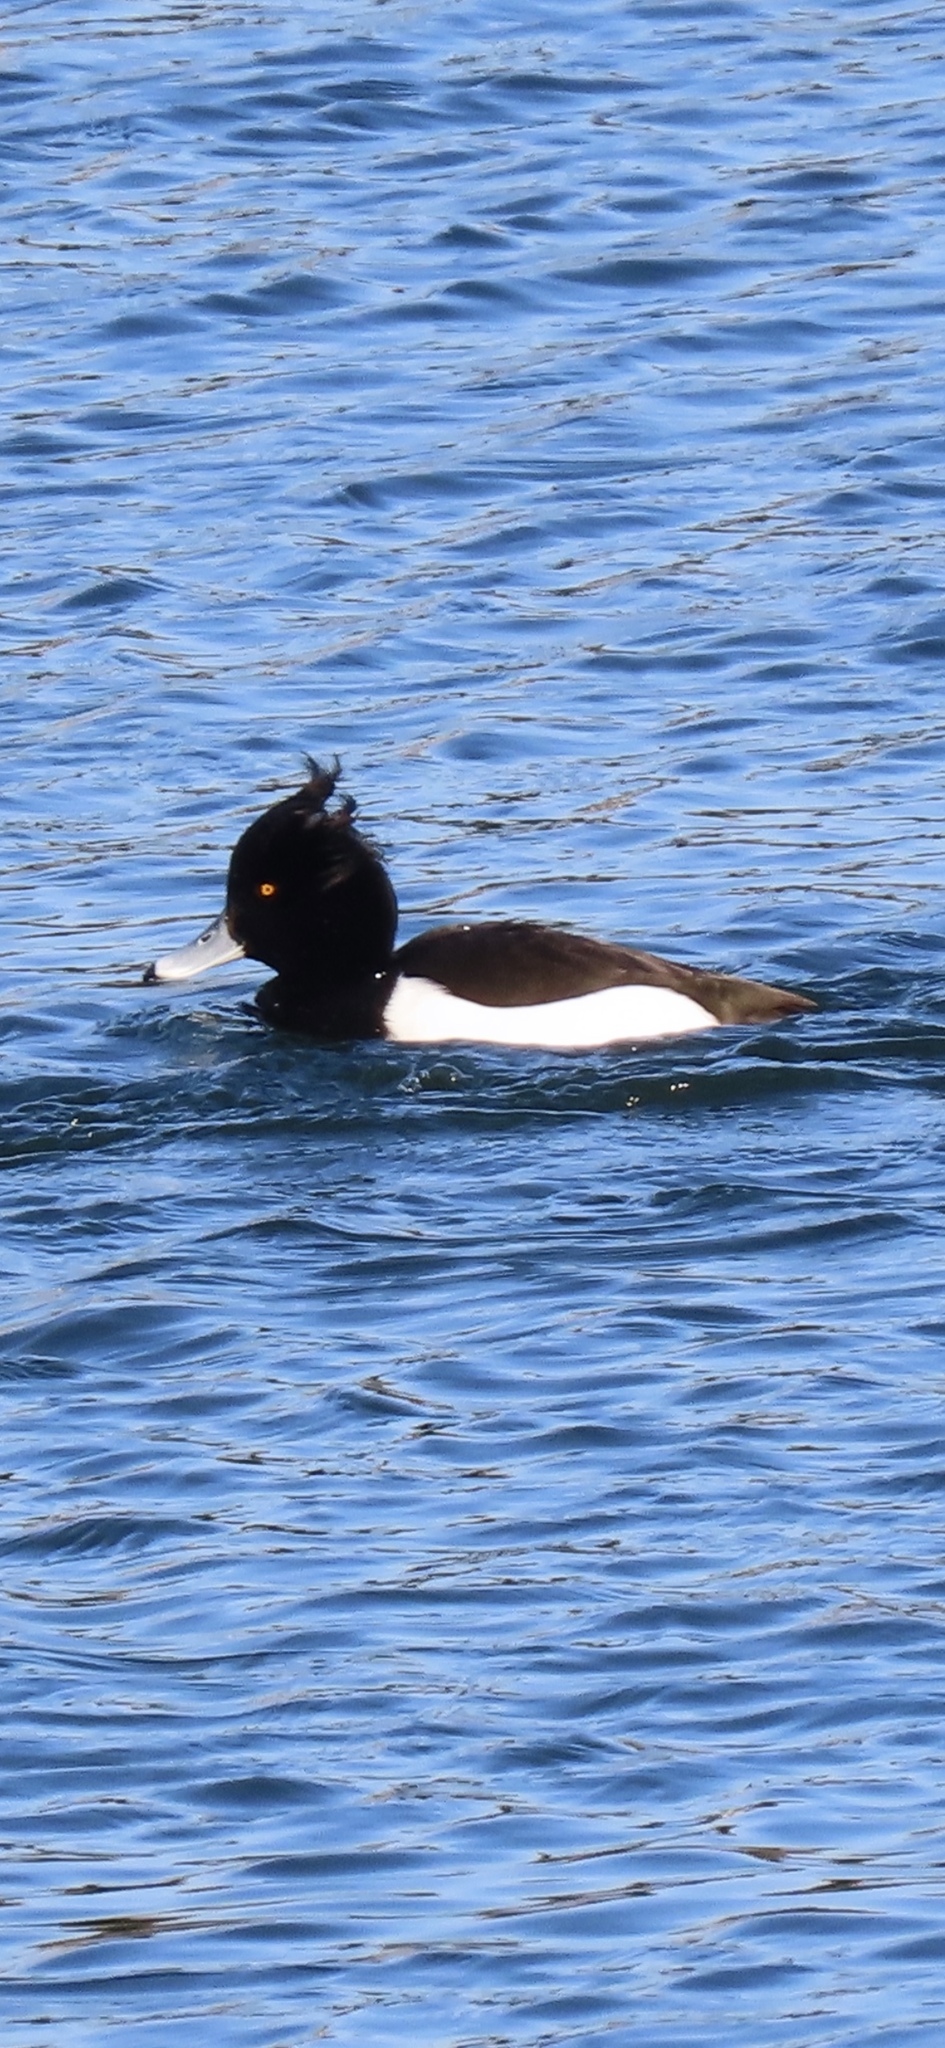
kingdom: Animalia
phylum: Chordata
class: Aves
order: Anseriformes
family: Anatidae
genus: Aythya
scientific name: Aythya fuligula
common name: Tufted duck
